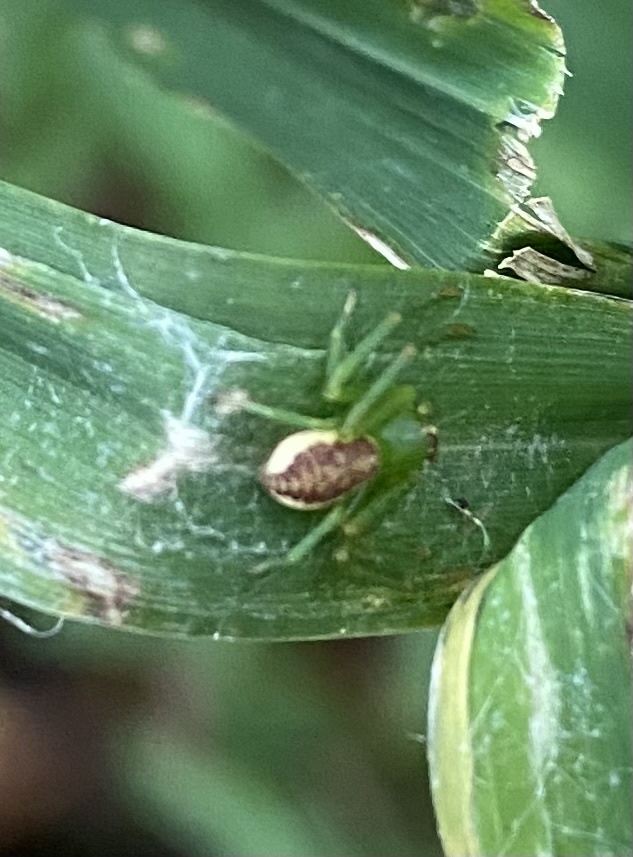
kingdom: Animalia
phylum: Arthropoda
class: Arachnida
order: Araneae
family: Thomisidae
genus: Diaea
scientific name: Diaea dorsata
